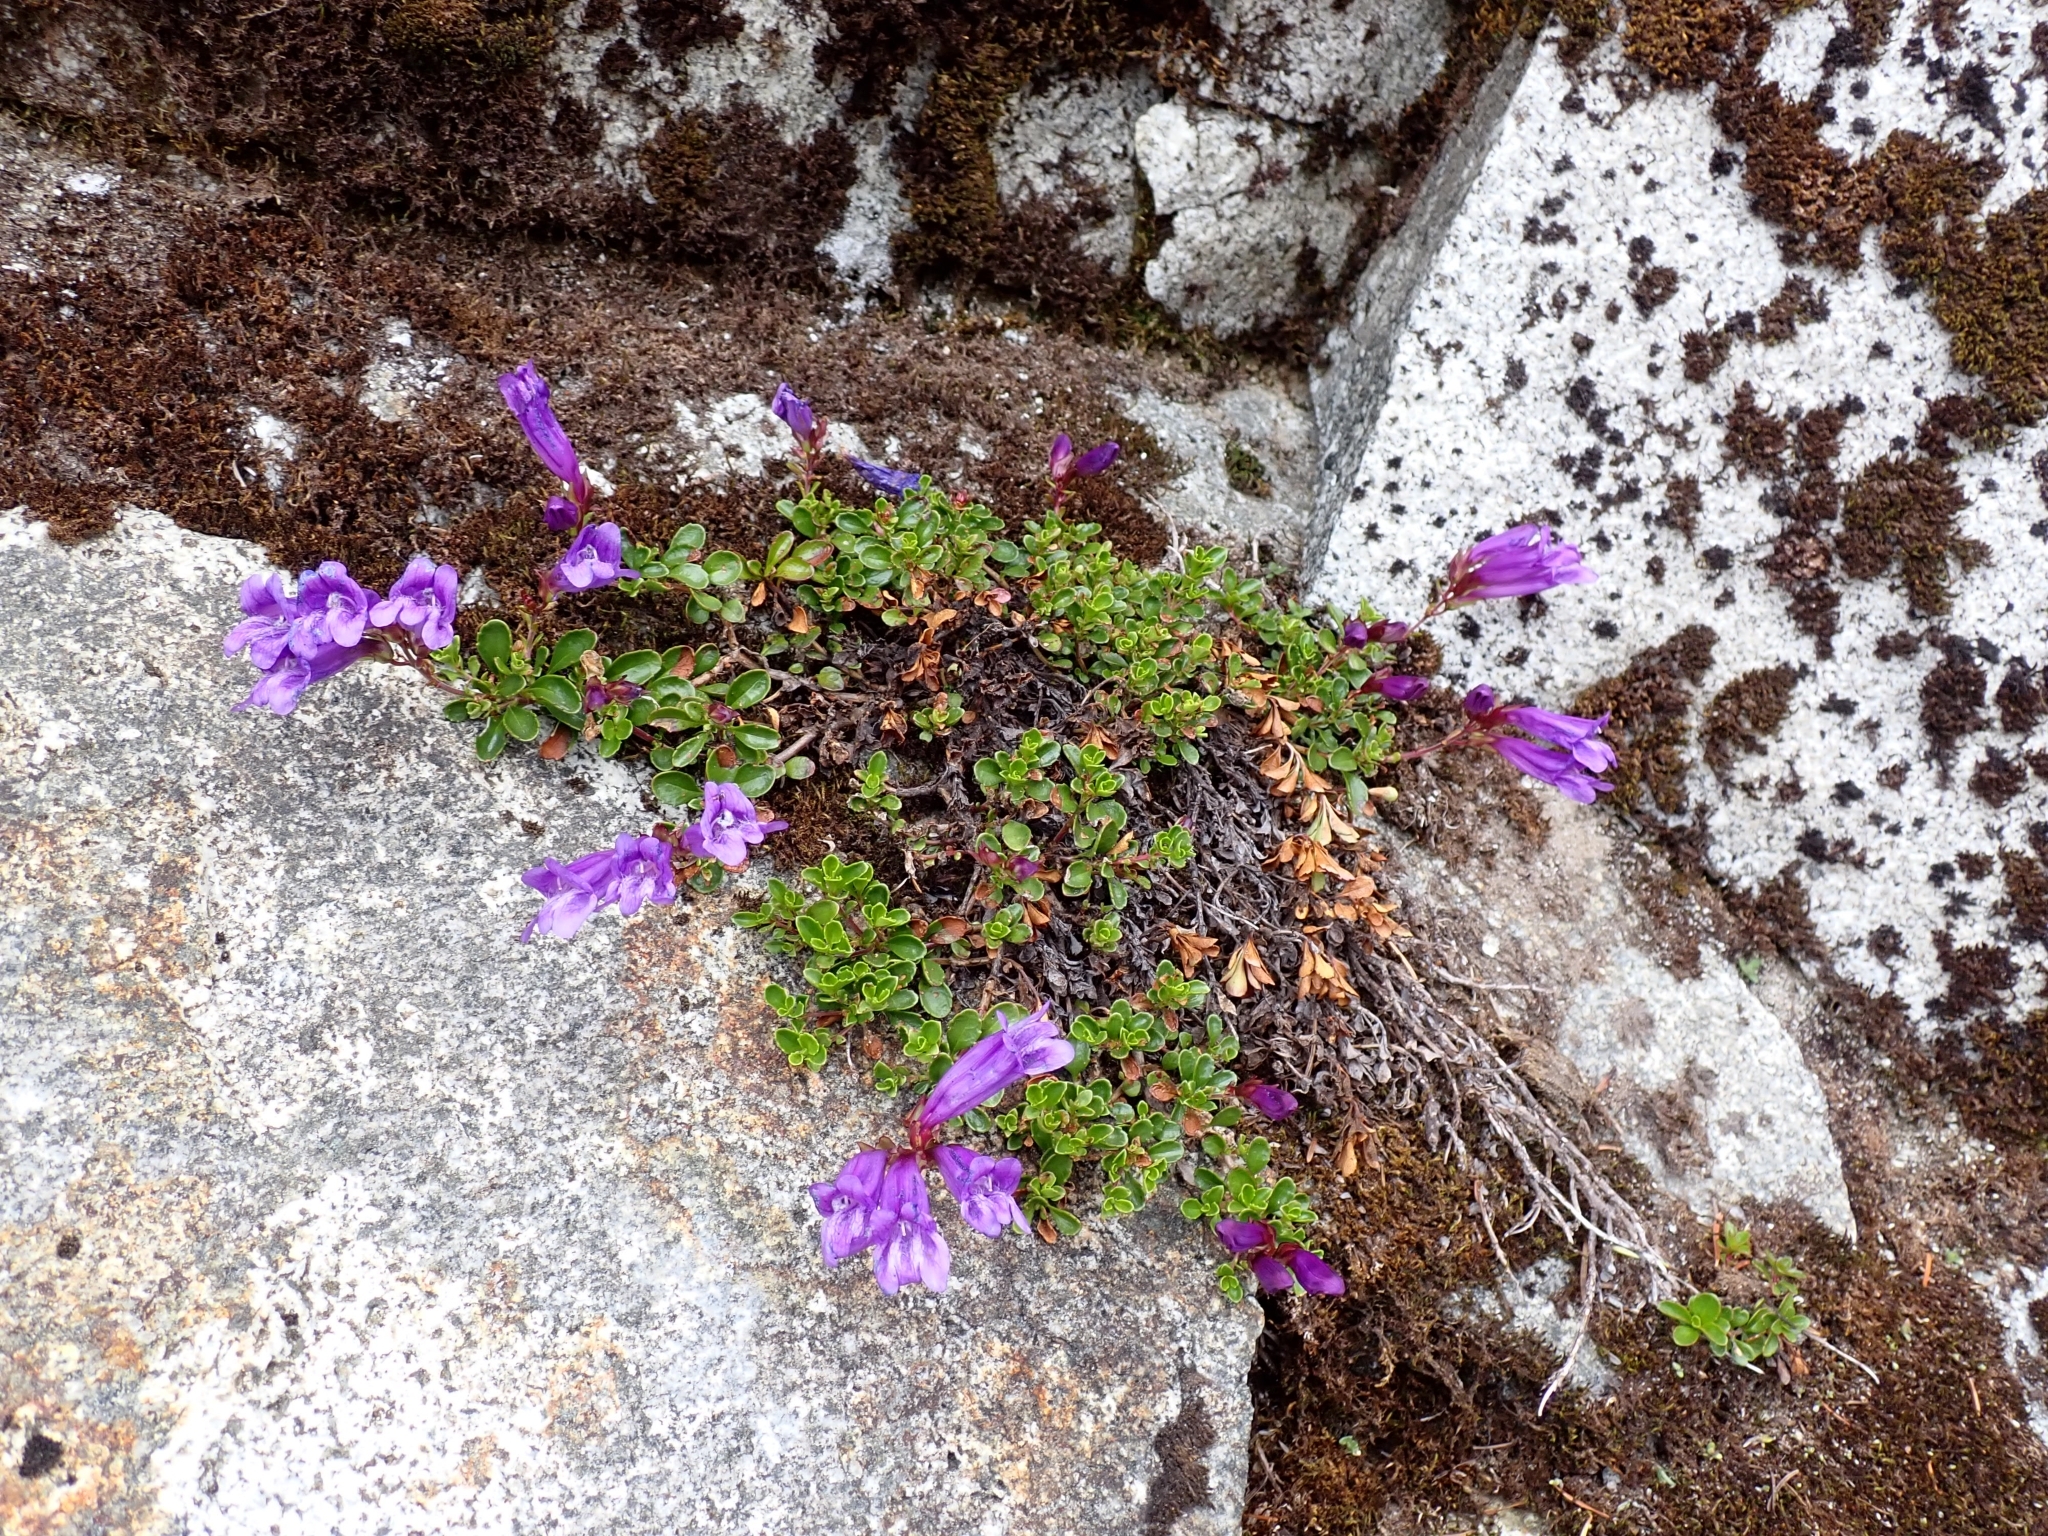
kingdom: Plantae
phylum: Tracheophyta
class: Magnoliopsida
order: Lamiales
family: Plantaginaceae
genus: Penstemon
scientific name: Penstemon davidsonii
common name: Davidson's penstemon
